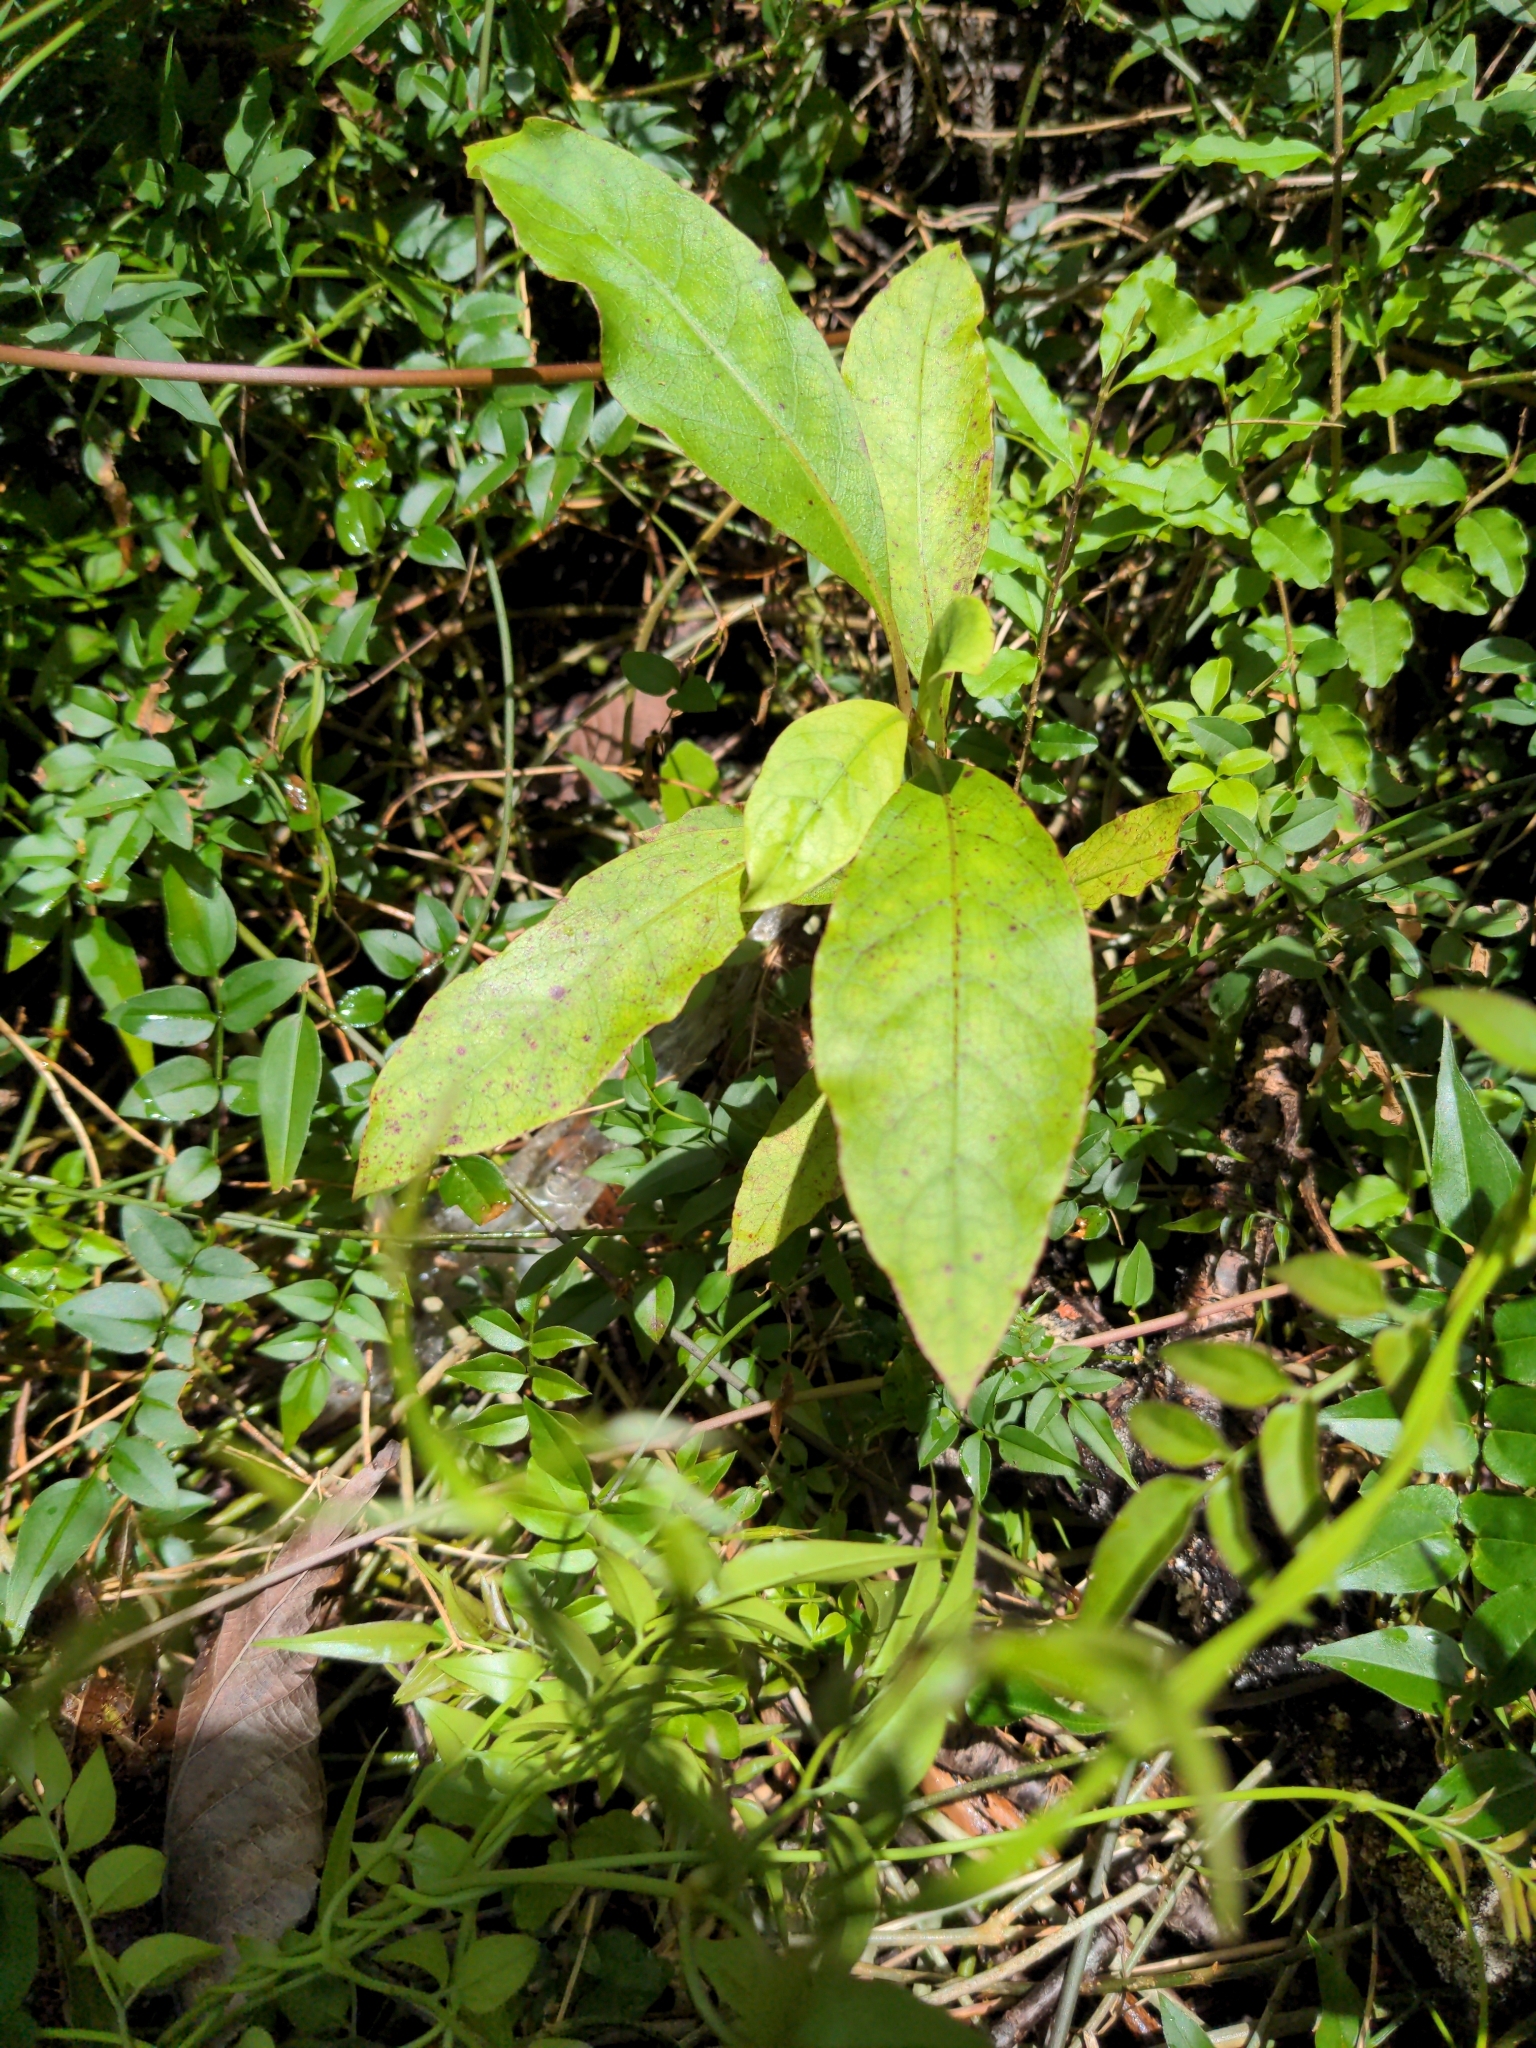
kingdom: Plantae
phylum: Tracheophyta
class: Magnoliopsida
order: Gentianales
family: Rubiaceae
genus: Coprosma
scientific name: Coprosma autumnalis
